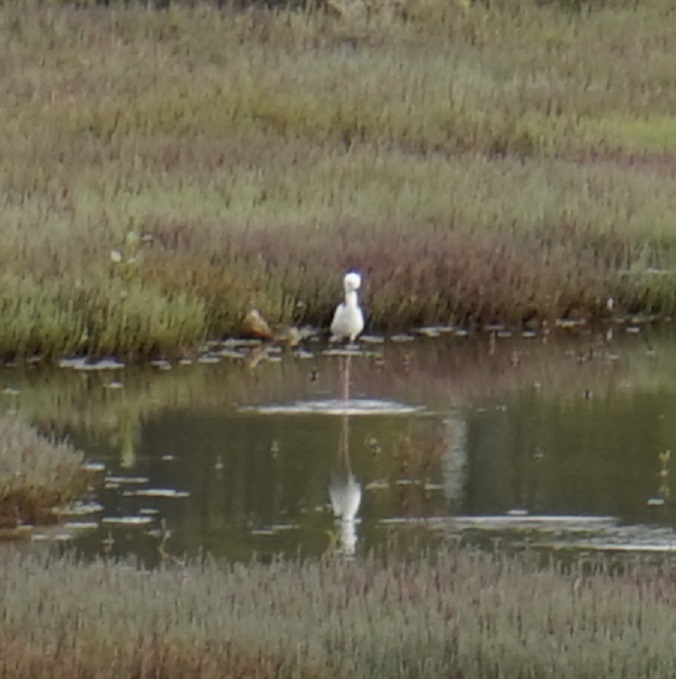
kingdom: Animalia
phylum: Chordata
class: Aves
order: Charadriiformes
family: Recurvirostridae
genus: Himantopus
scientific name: Himantopus leucocephalus
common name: White-headed stilt
